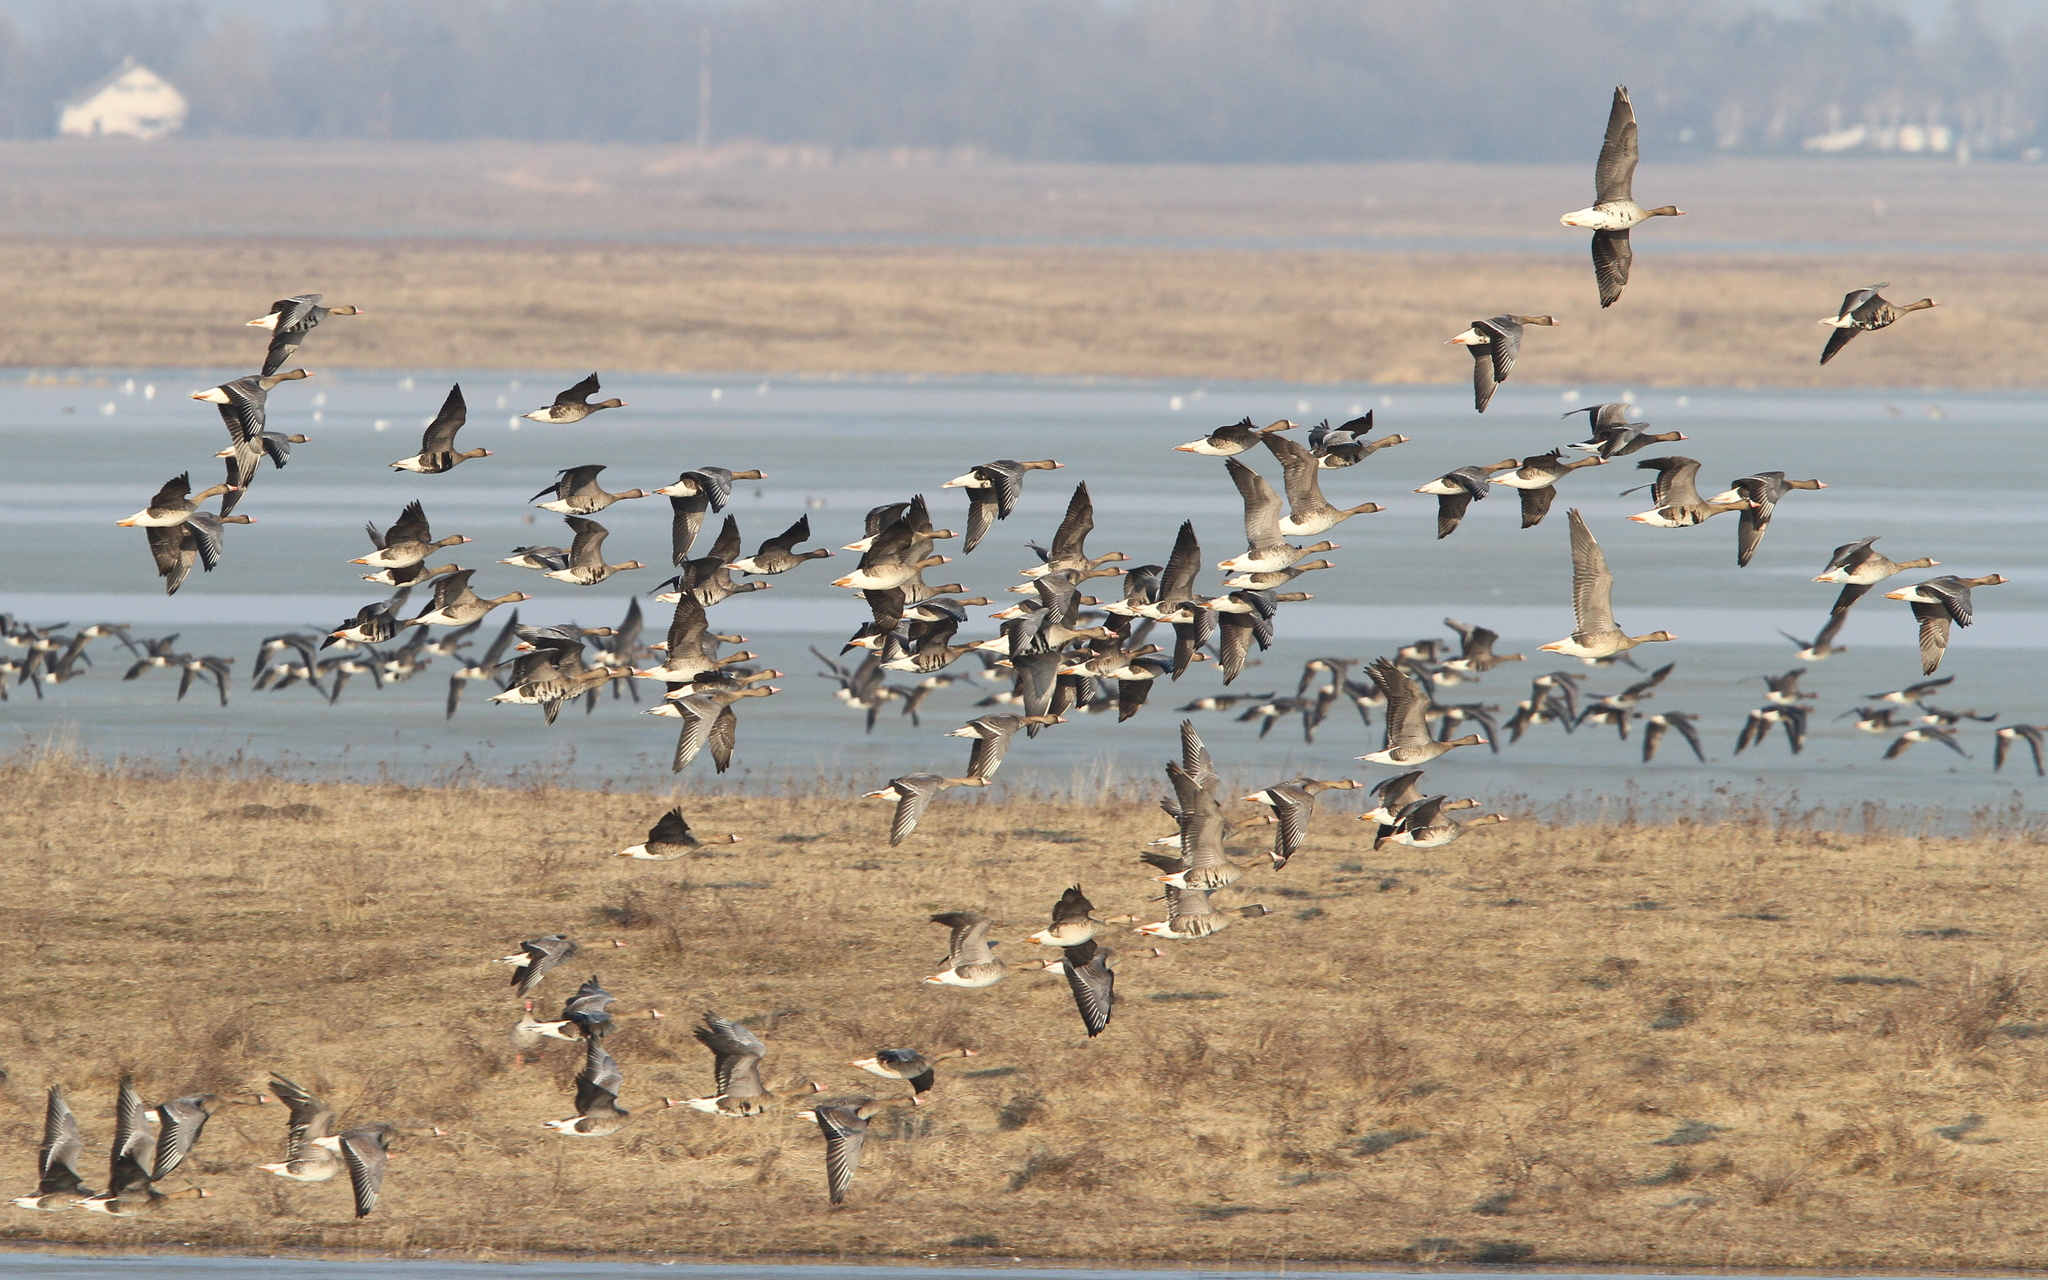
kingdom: Animalia
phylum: Chordata
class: Aves
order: Anseriformes
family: Anatidae
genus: Anser
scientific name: Anser albifrons
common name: Greater white-fronted goose
